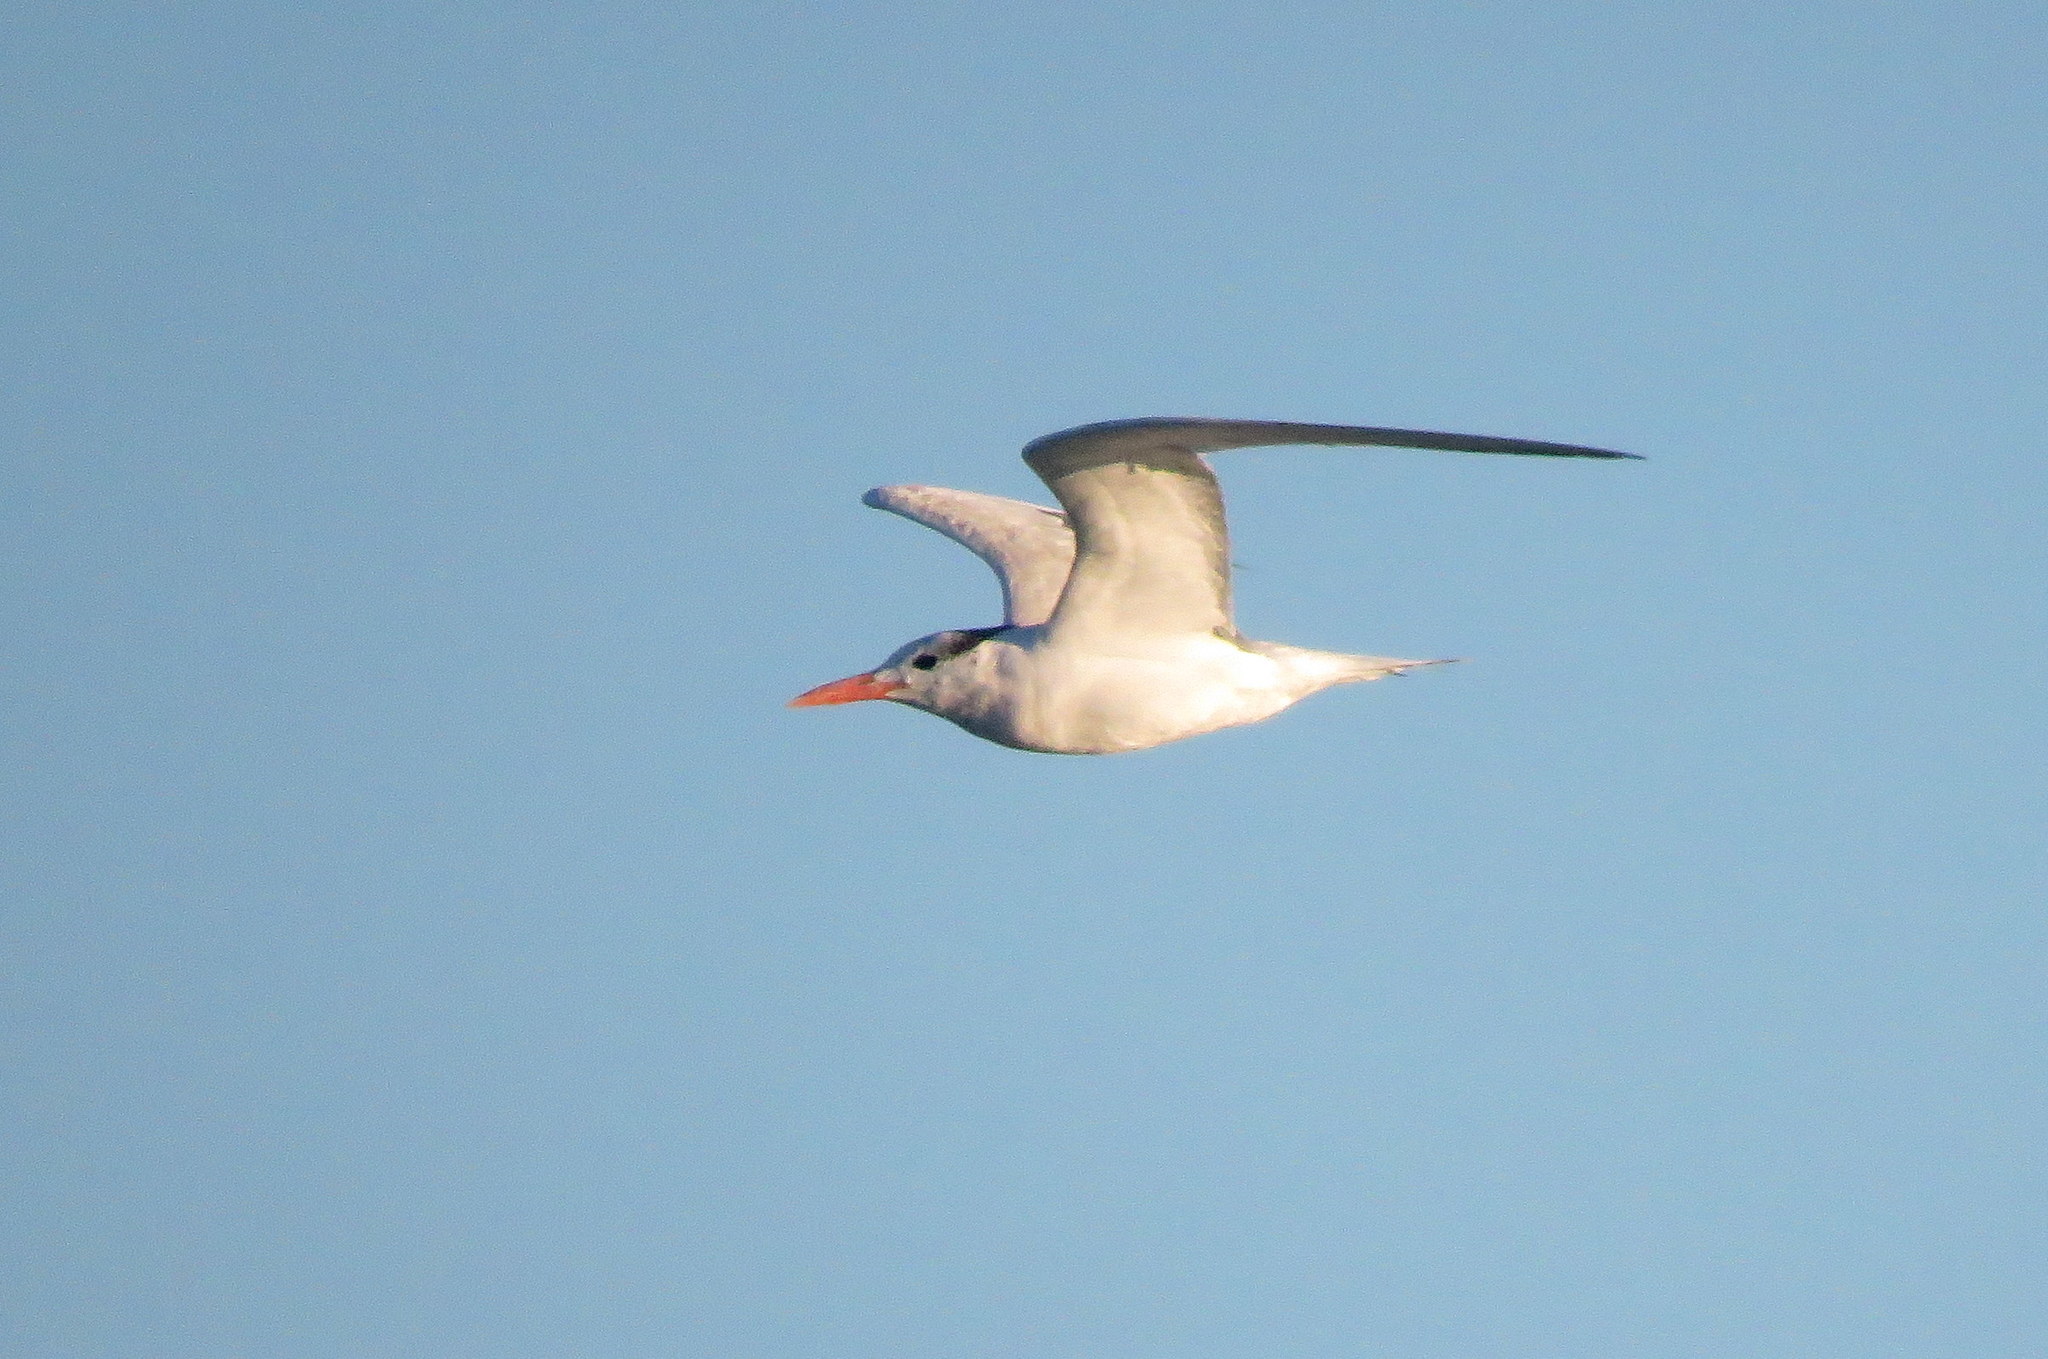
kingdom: Animalia
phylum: Chordata
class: Aves
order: Charadriiformes
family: Laridae
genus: Thalasseus
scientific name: Thalasseus sandvicensis
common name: Sandwich tern
